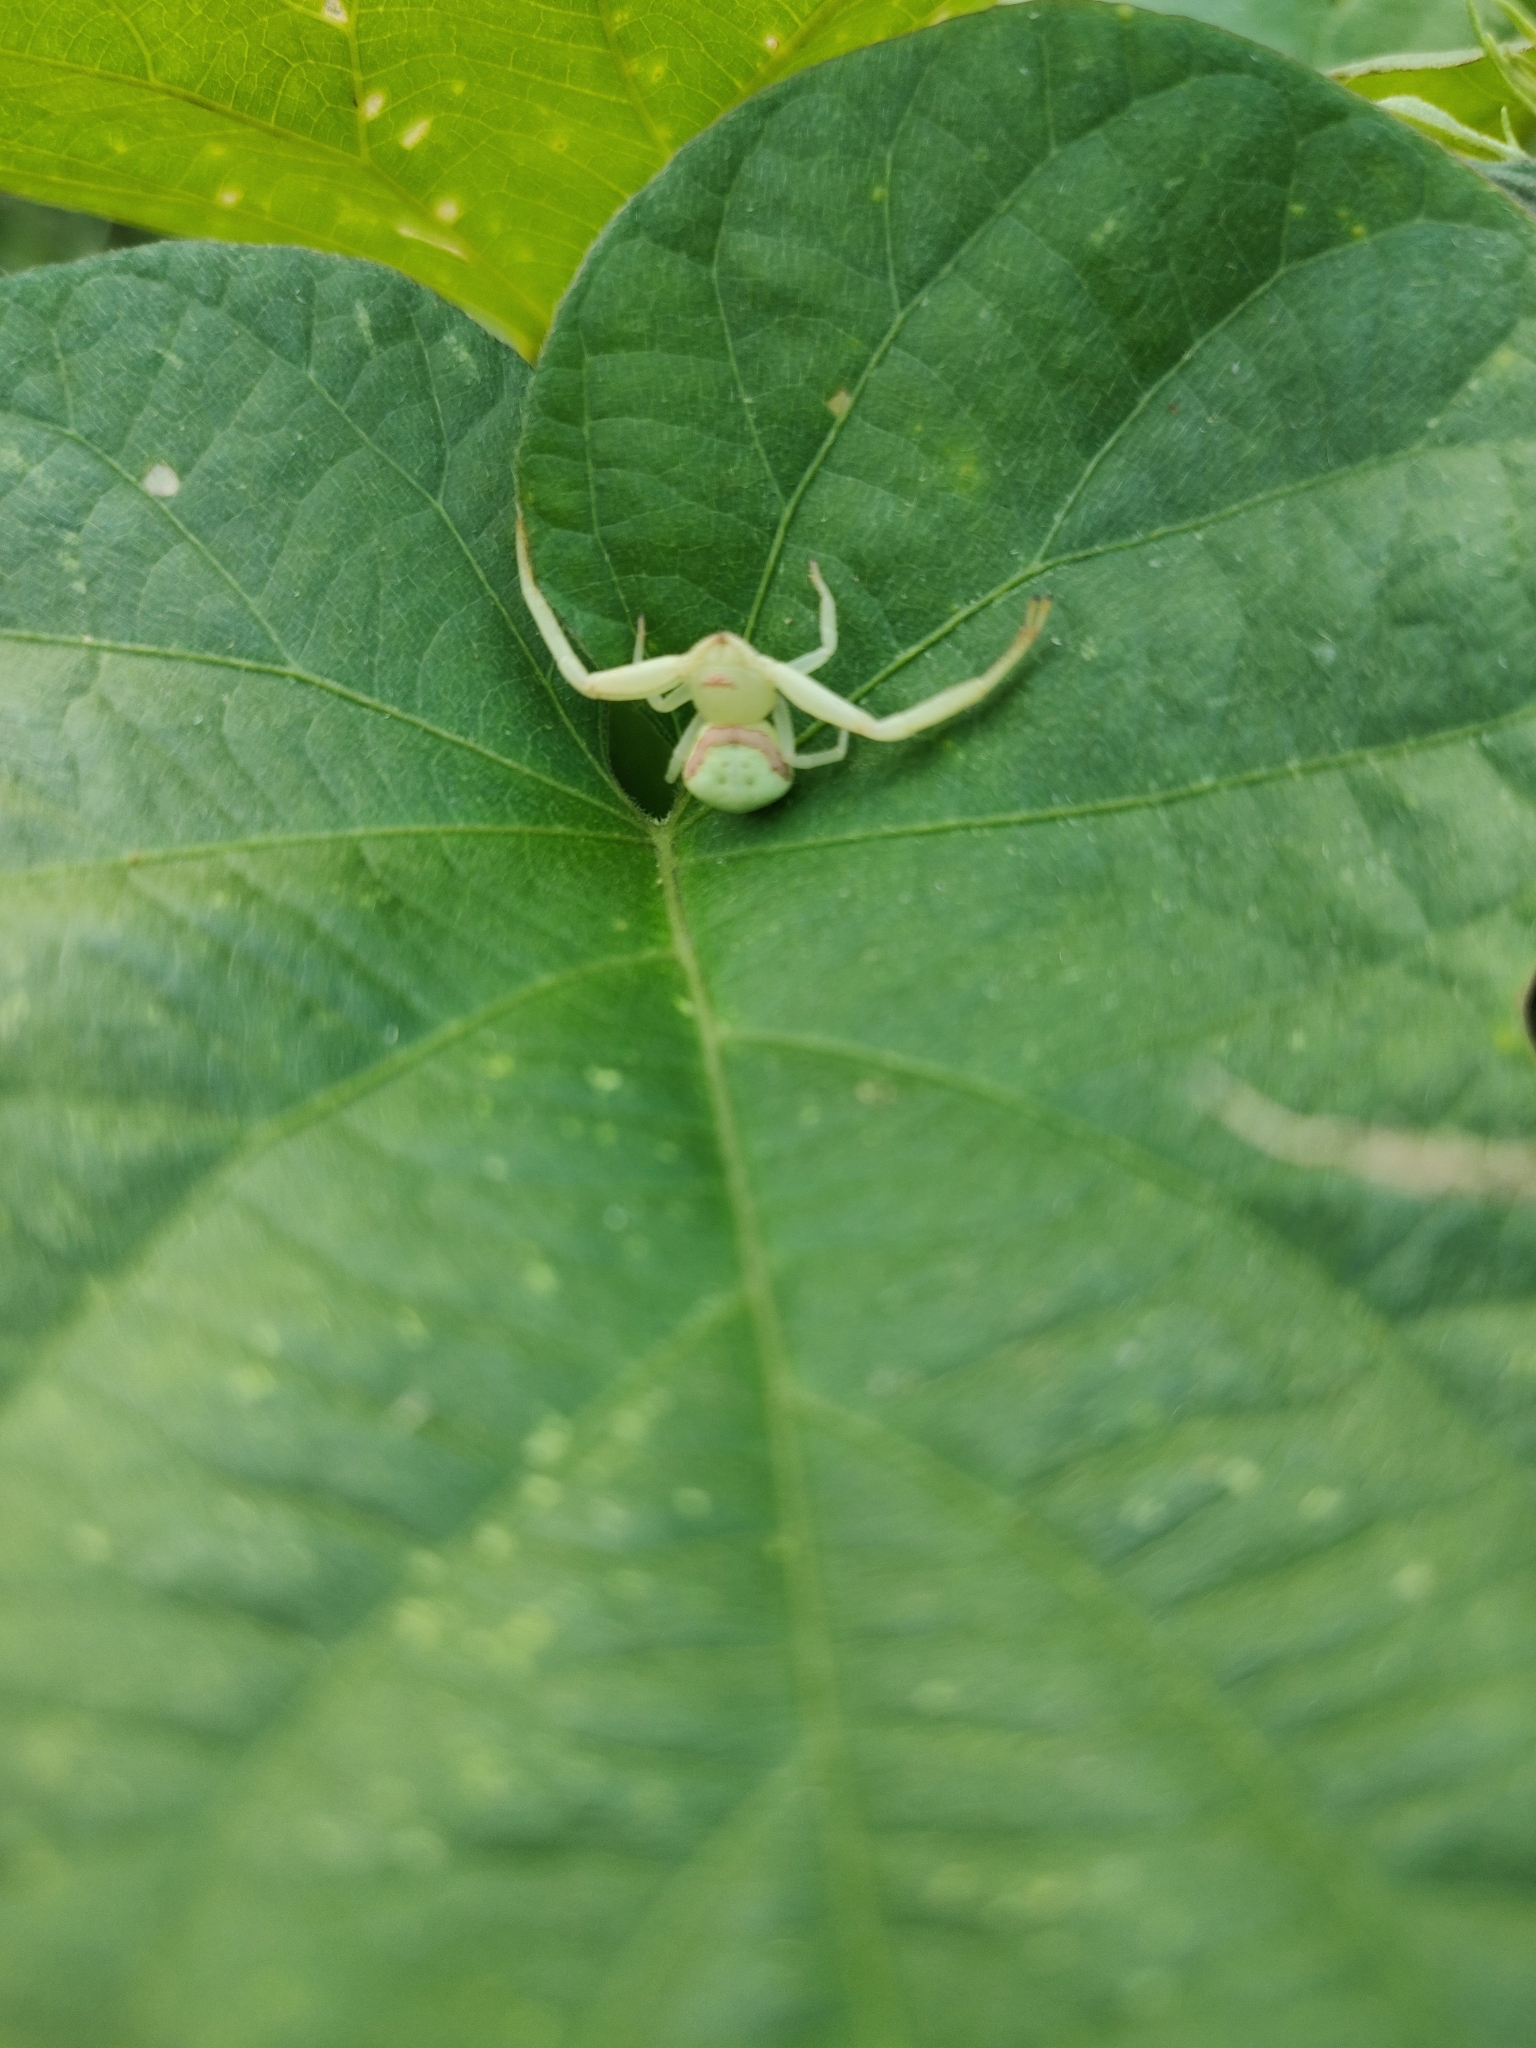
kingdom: Animalia
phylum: Arthropoda
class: Arachnida
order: Araneae
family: Thomisidae
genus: Misumenops
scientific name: Misumenops callinurus
